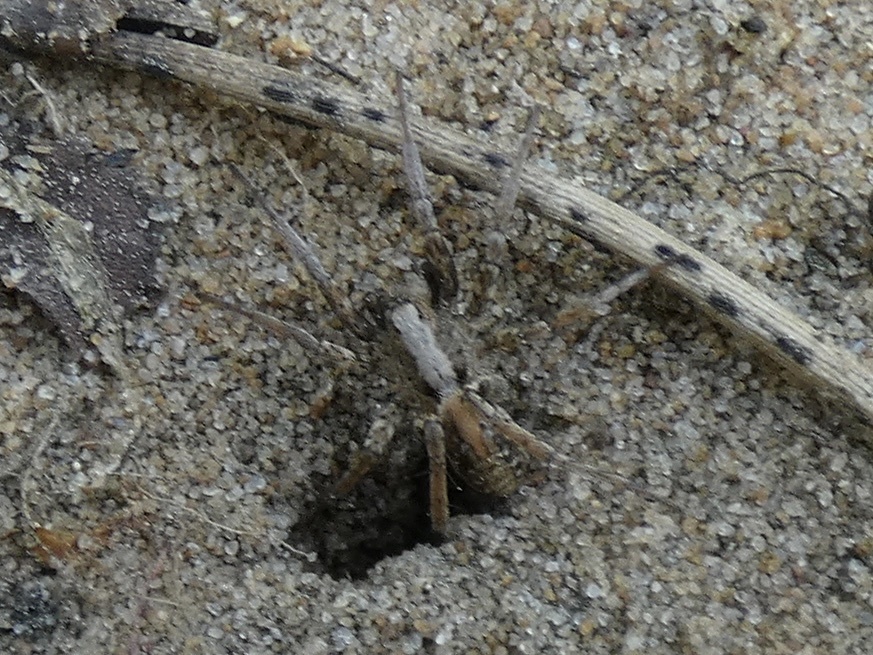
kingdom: Animalia
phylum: Arthropoda
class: Arachnida
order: Araneae
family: Lycosidae
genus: Xerolycosa
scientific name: Xerolycosa miniata
